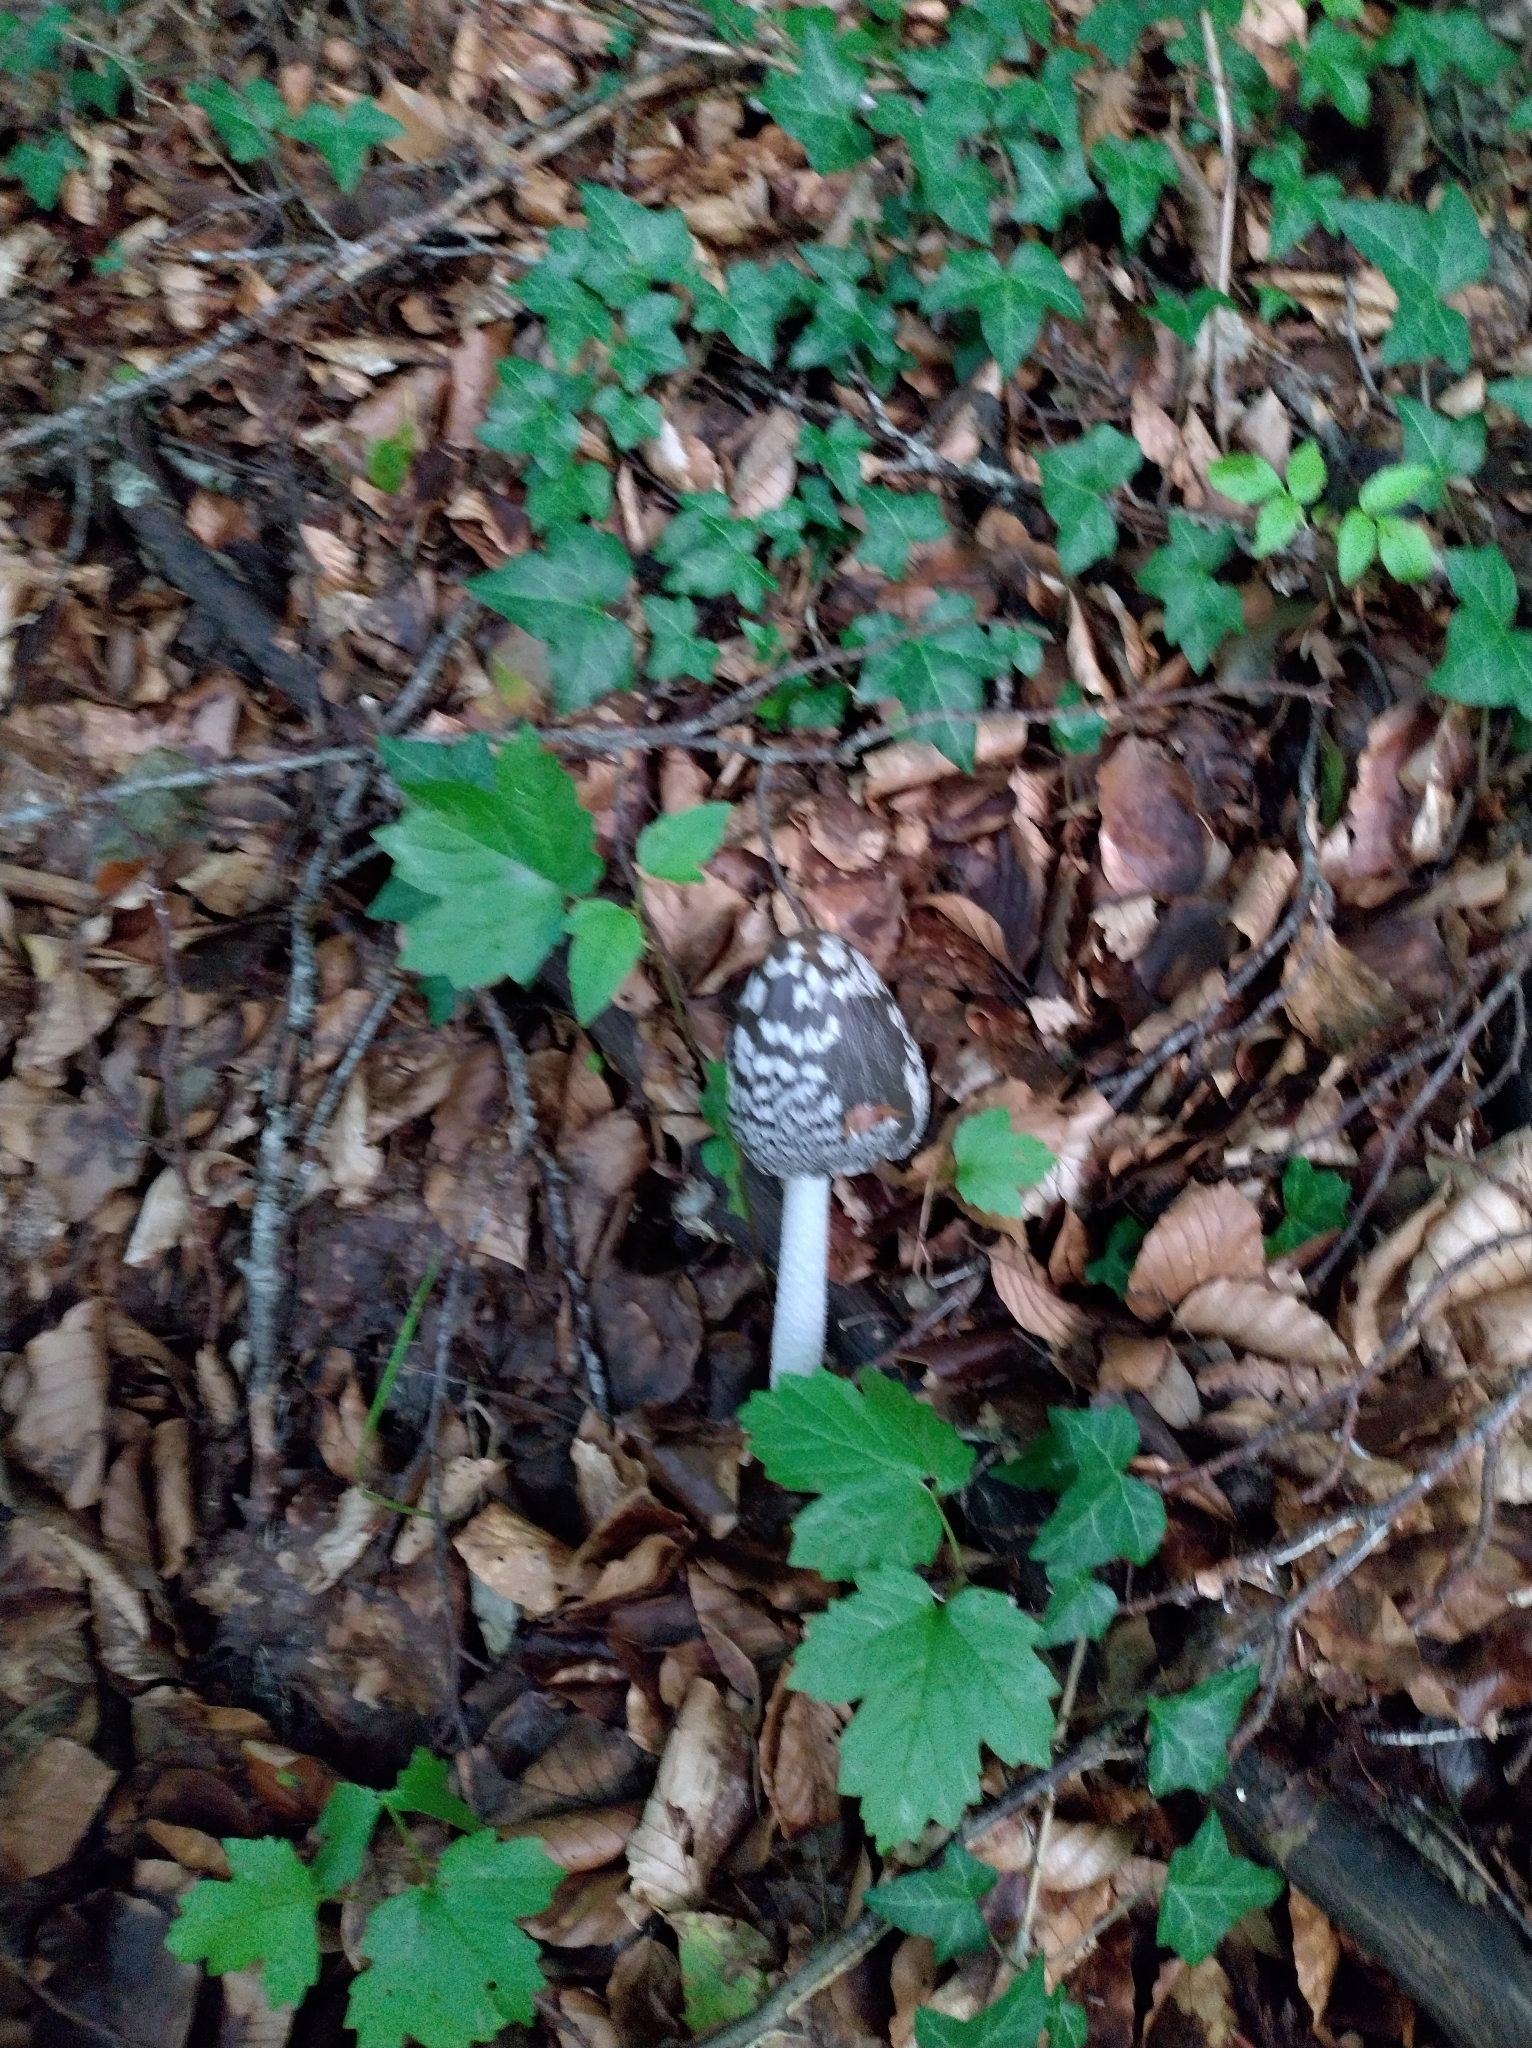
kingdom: Fungi
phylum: Basidiomycota
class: Agaricomycetes
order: Agaricales
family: Psathyrellaceae
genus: Coprinopsis
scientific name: Coprinopsis picacea
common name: Magpie inkcap
